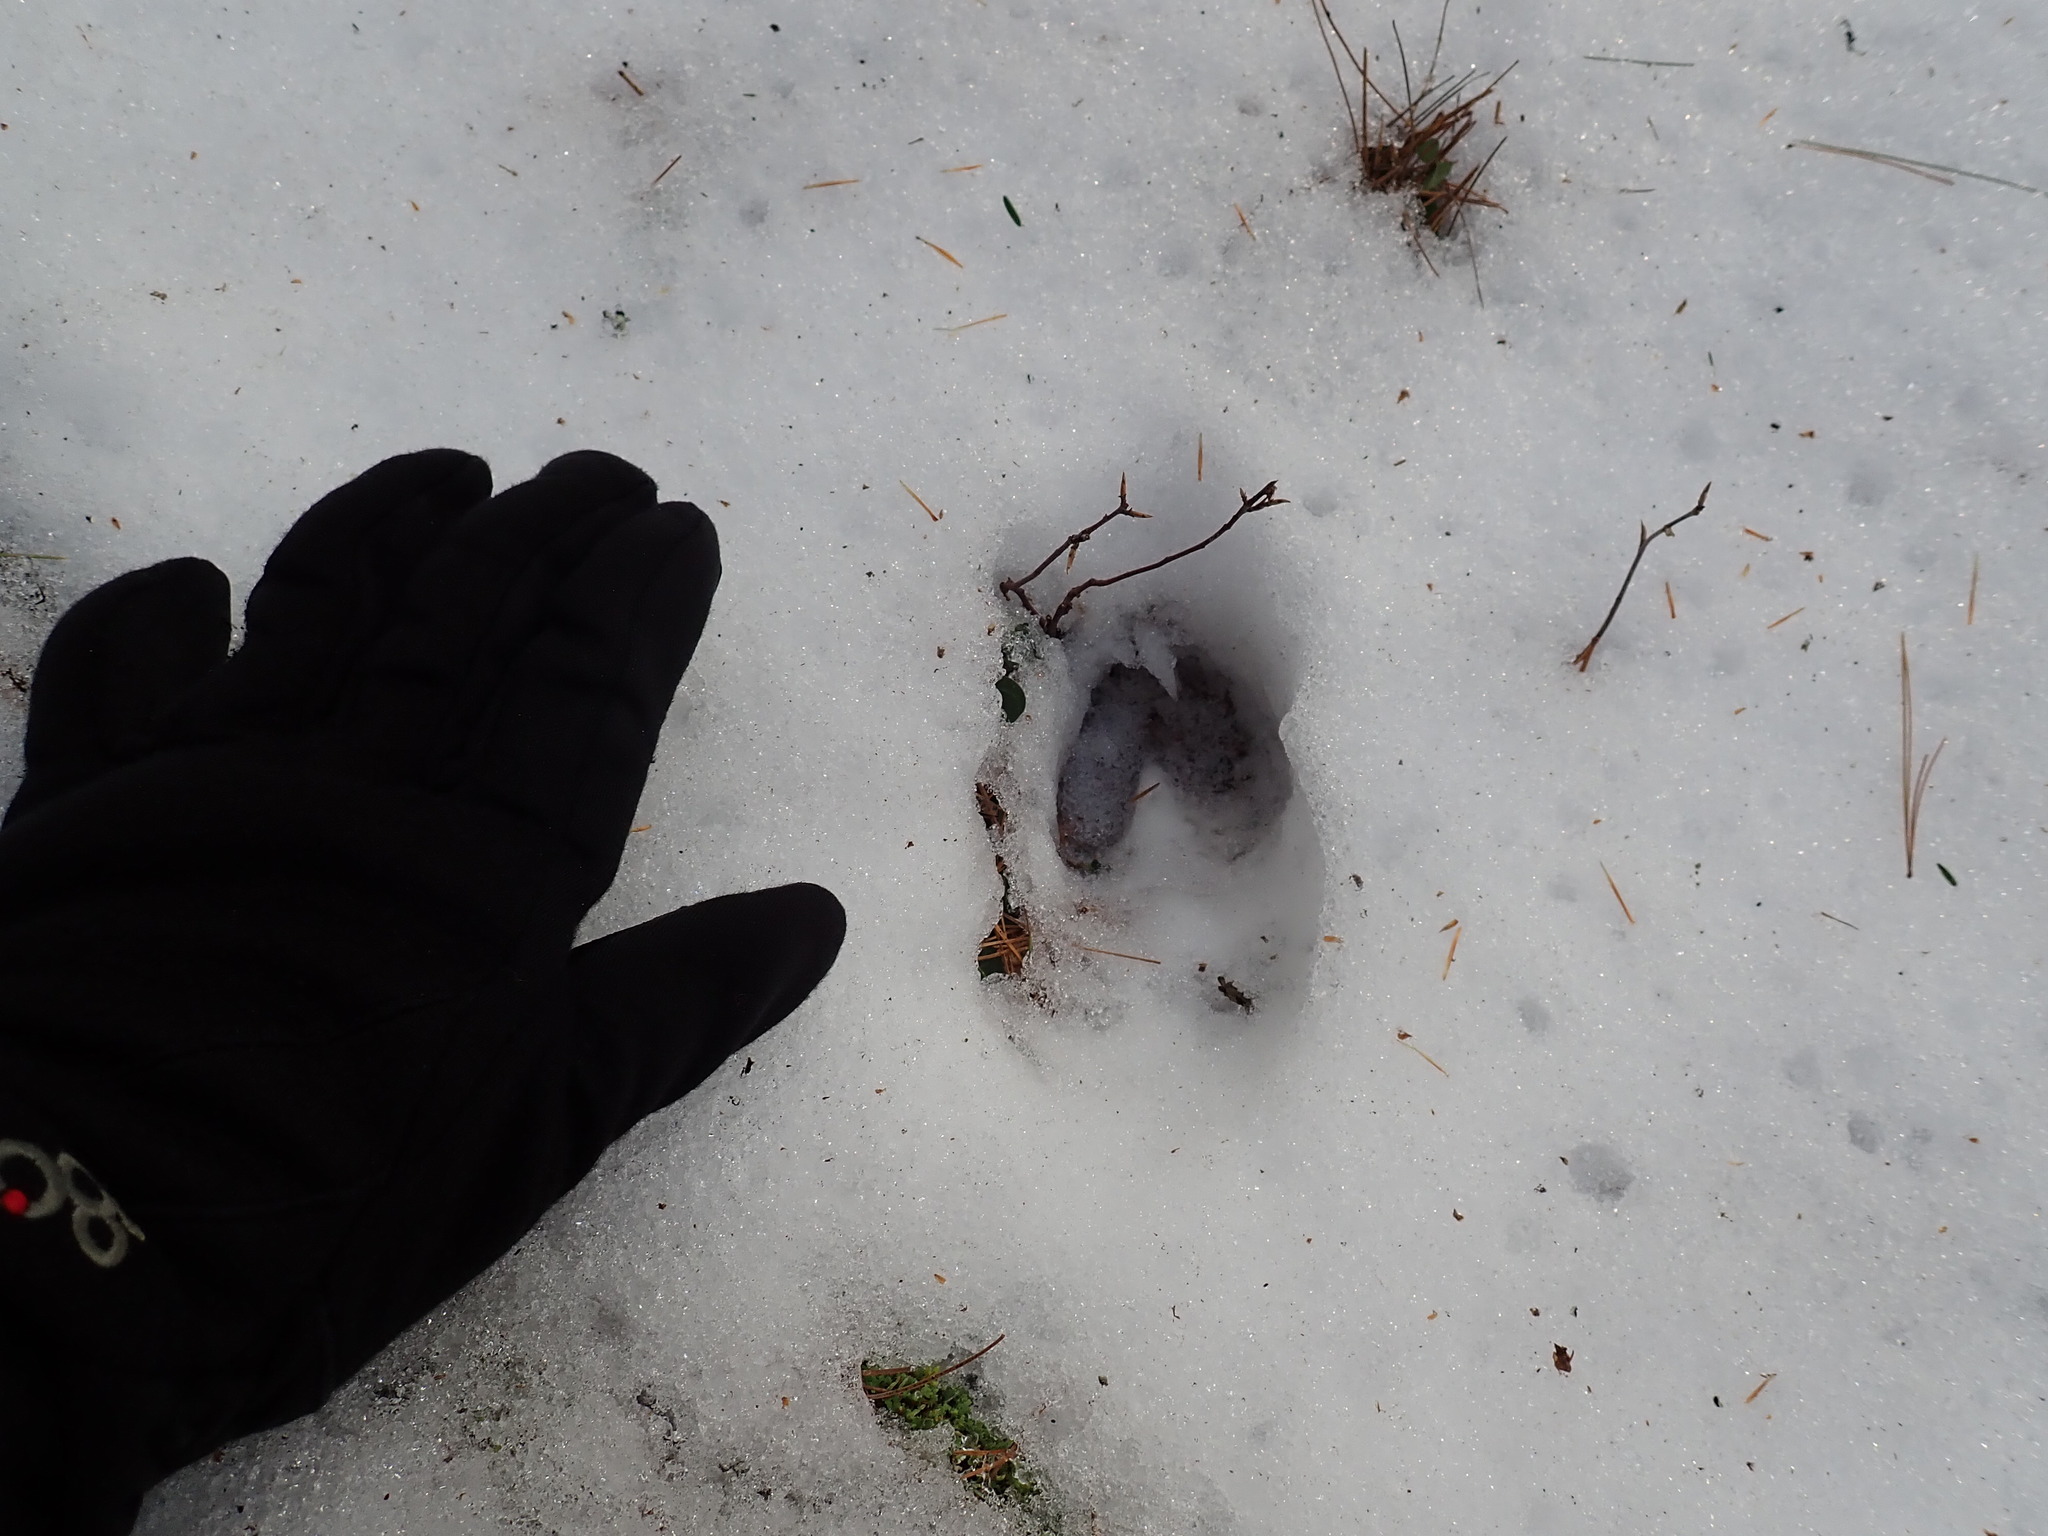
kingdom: Animalia
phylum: Chordata
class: Mammalia
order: Artiodactyla
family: Cervidae
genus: Odocoileus
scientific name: Odocoileus virginianus
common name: White-tailed deer
